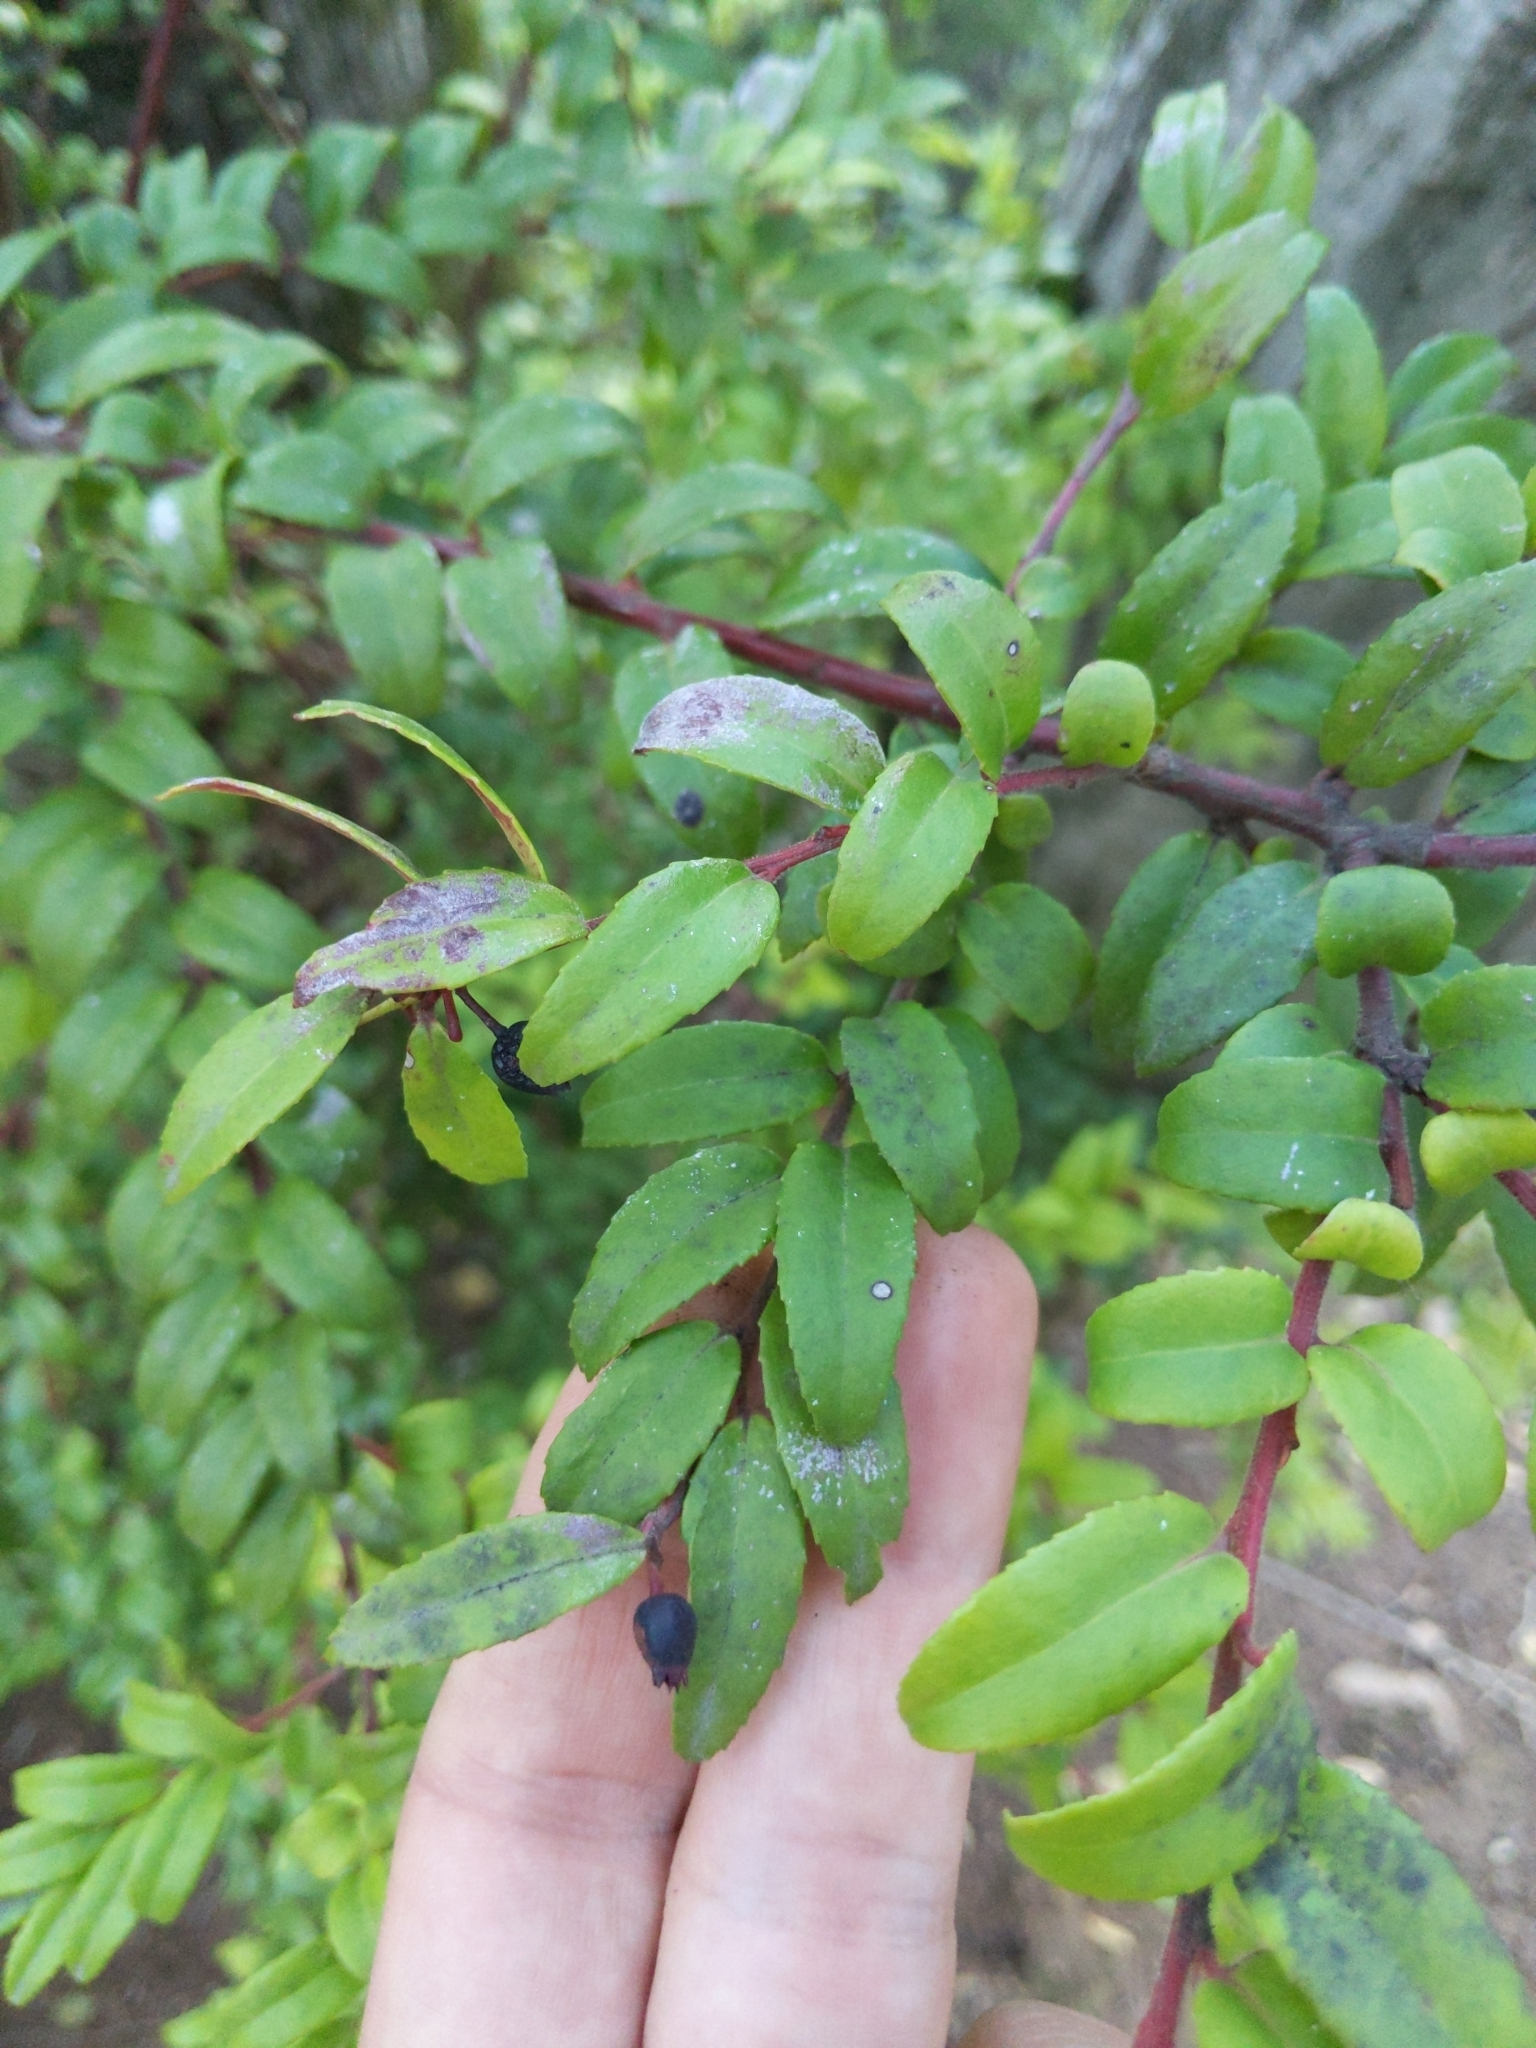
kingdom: Plantae
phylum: Tracheophyta
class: Magnoliopsida
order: Ericales
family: Ericaceae
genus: Vaccinium
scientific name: Vaccinium ovatum
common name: California-huckleberry
